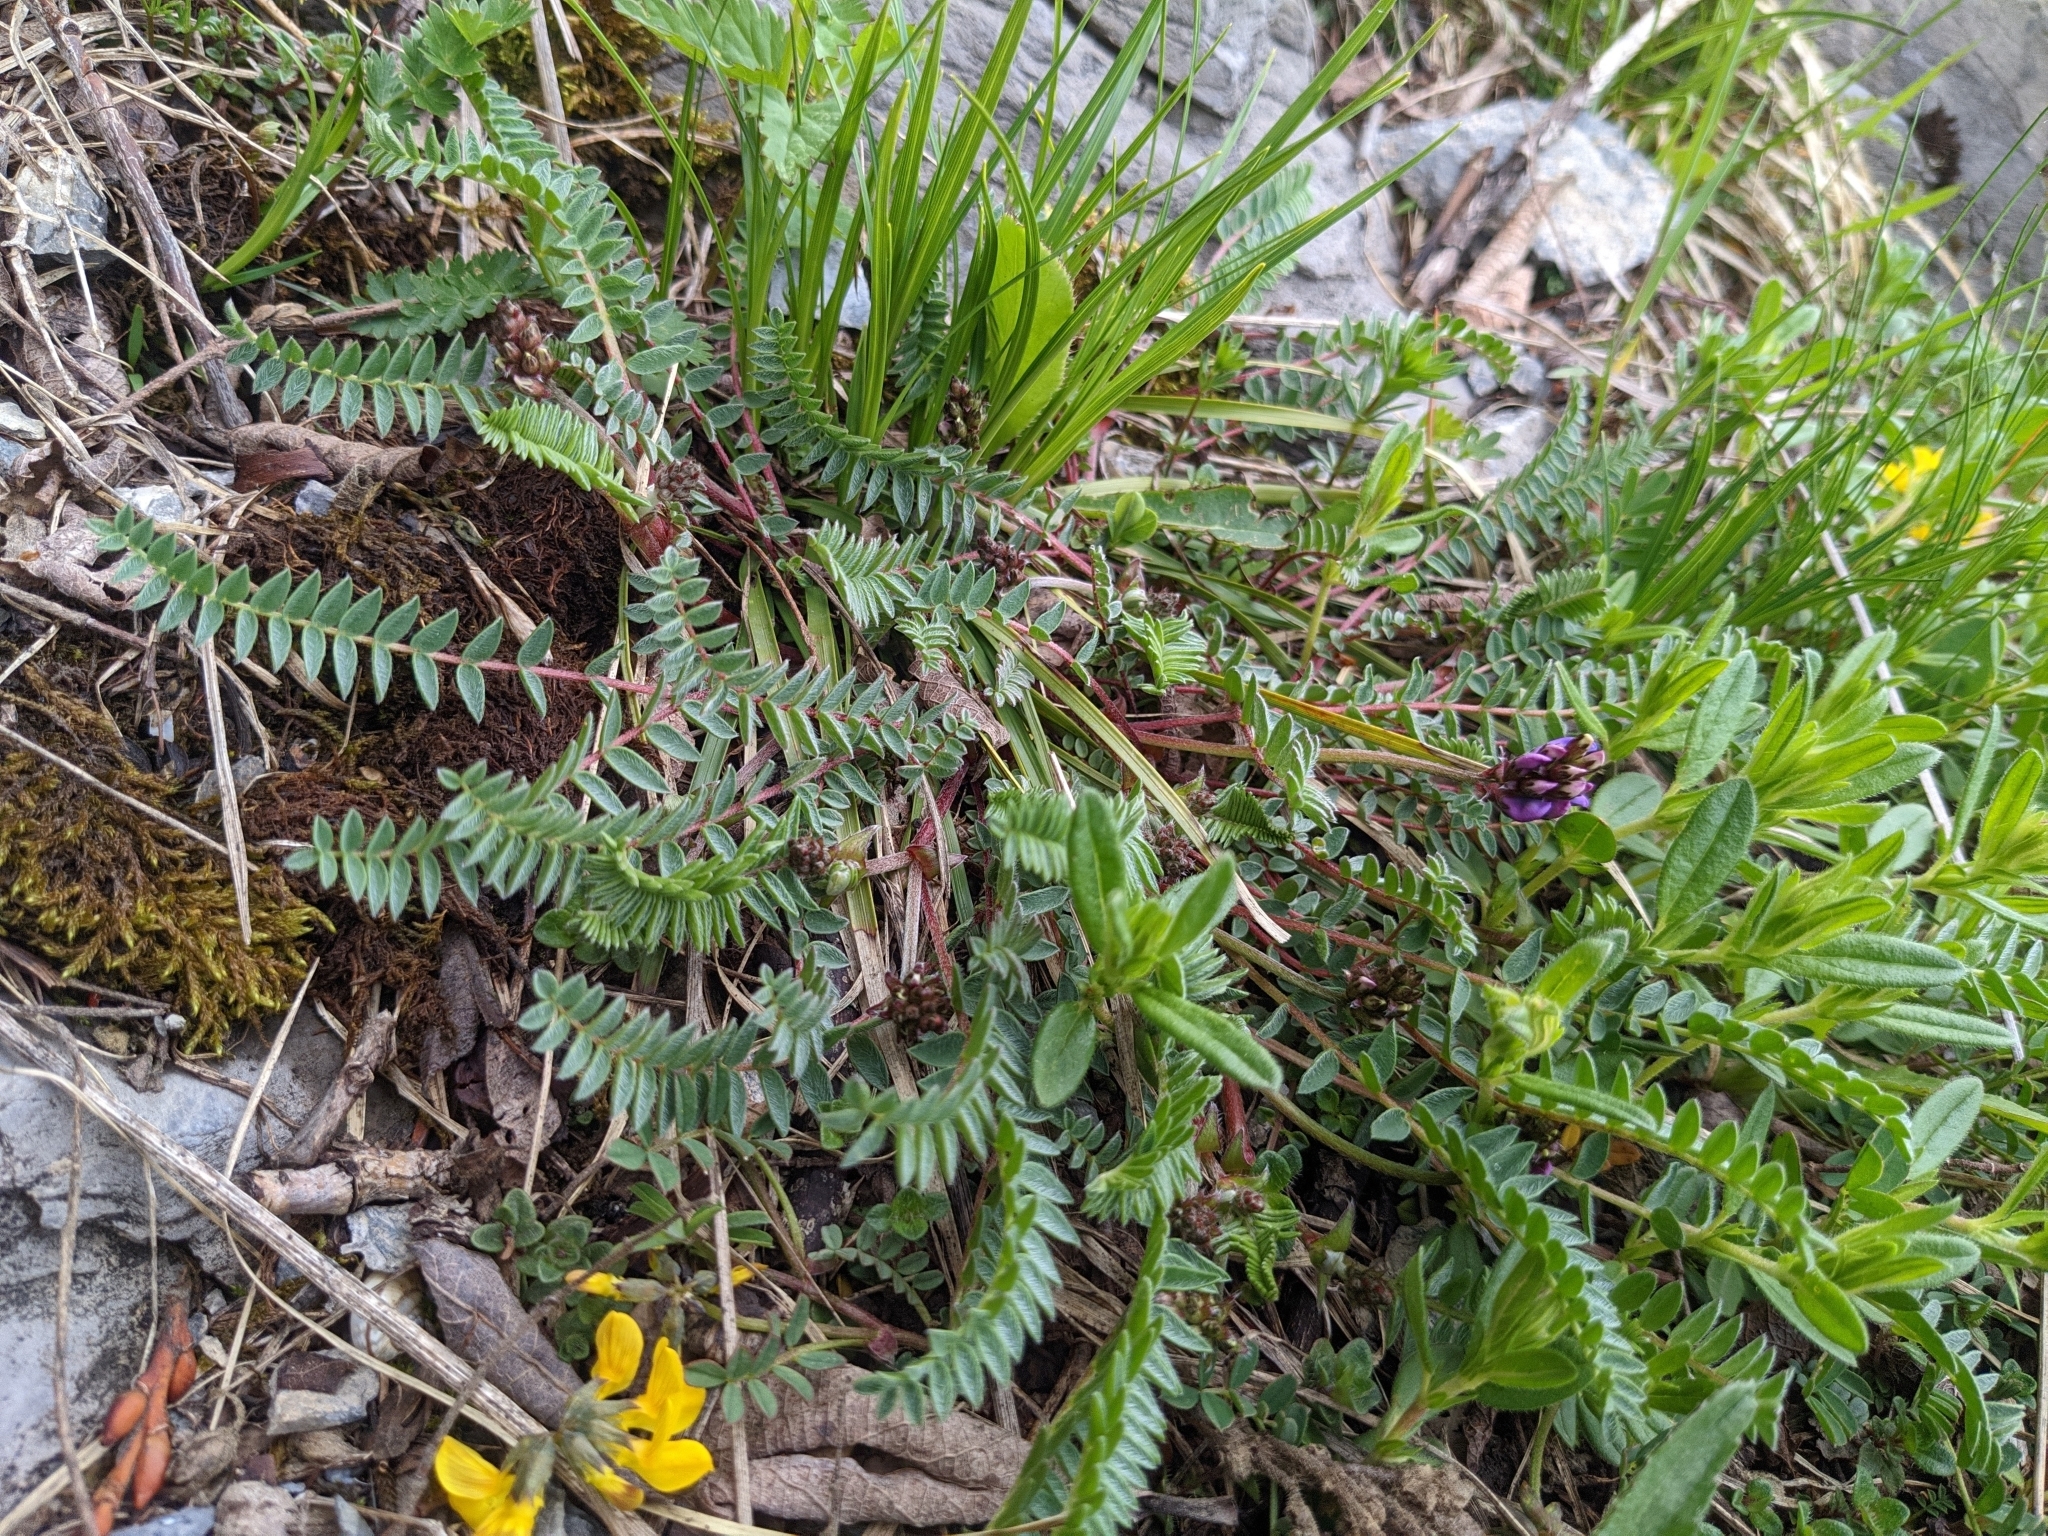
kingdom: Plantae
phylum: Tracheophyta
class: Magnoliopsida
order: Fabales
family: Fabaceae
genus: Oxytropis
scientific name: Oxytropis montana
